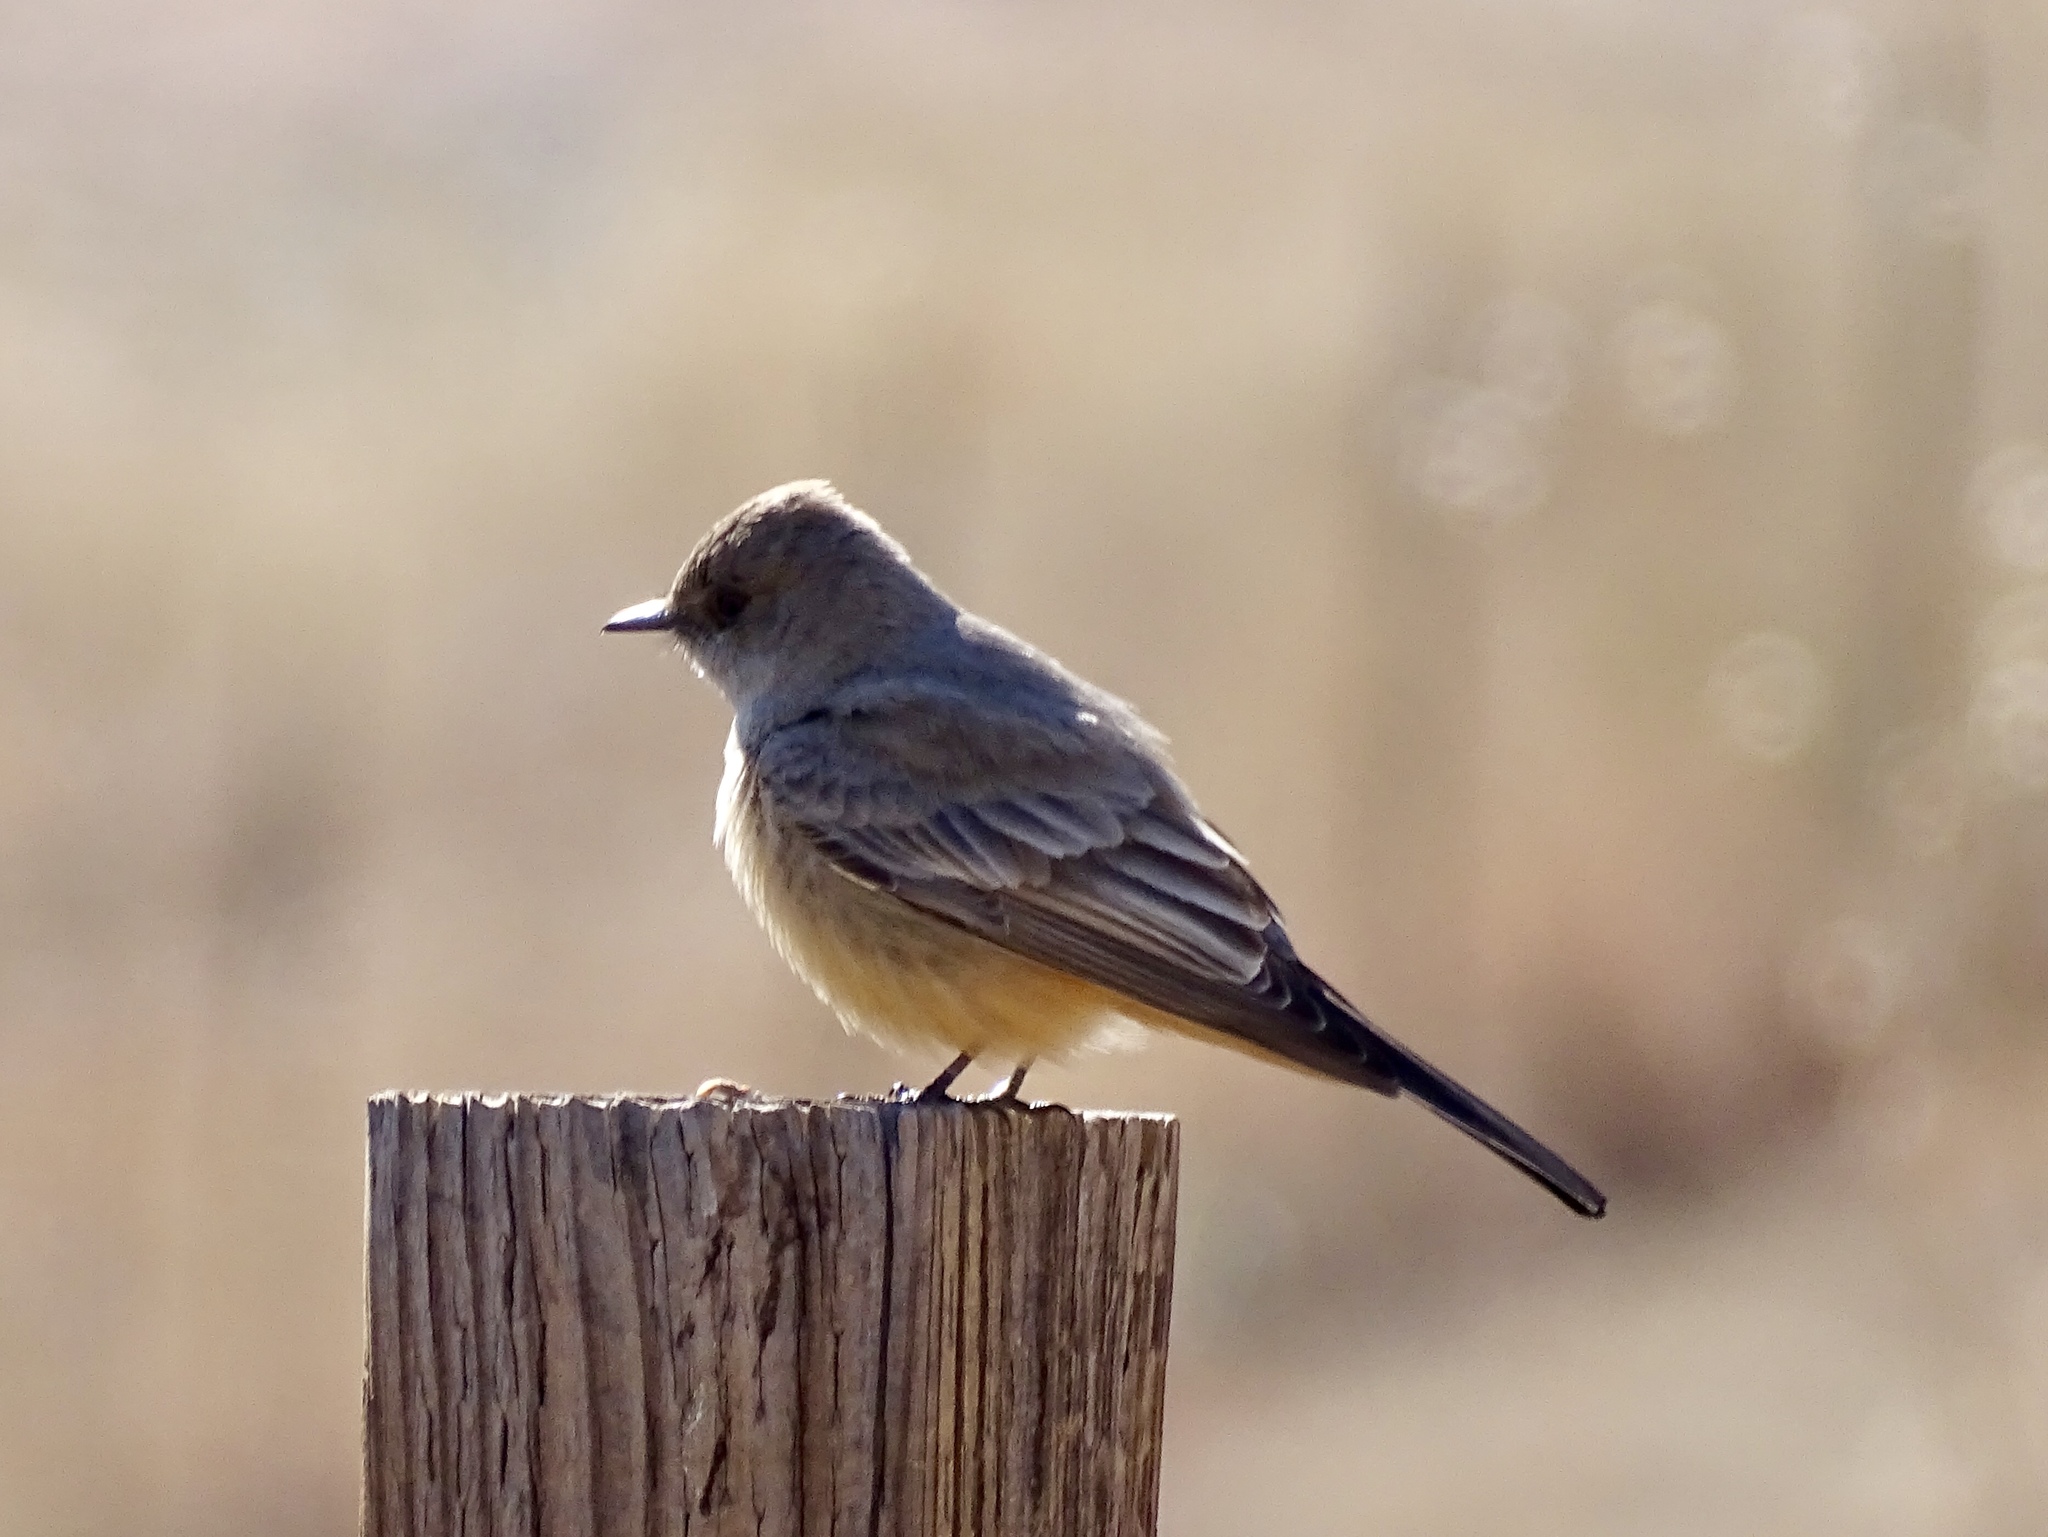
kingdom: Animalia
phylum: Chordata
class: Aves
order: Passeriformes
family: Tyrannidae
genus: Sayornis
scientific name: Sayornis saya
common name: Say's phoebe
